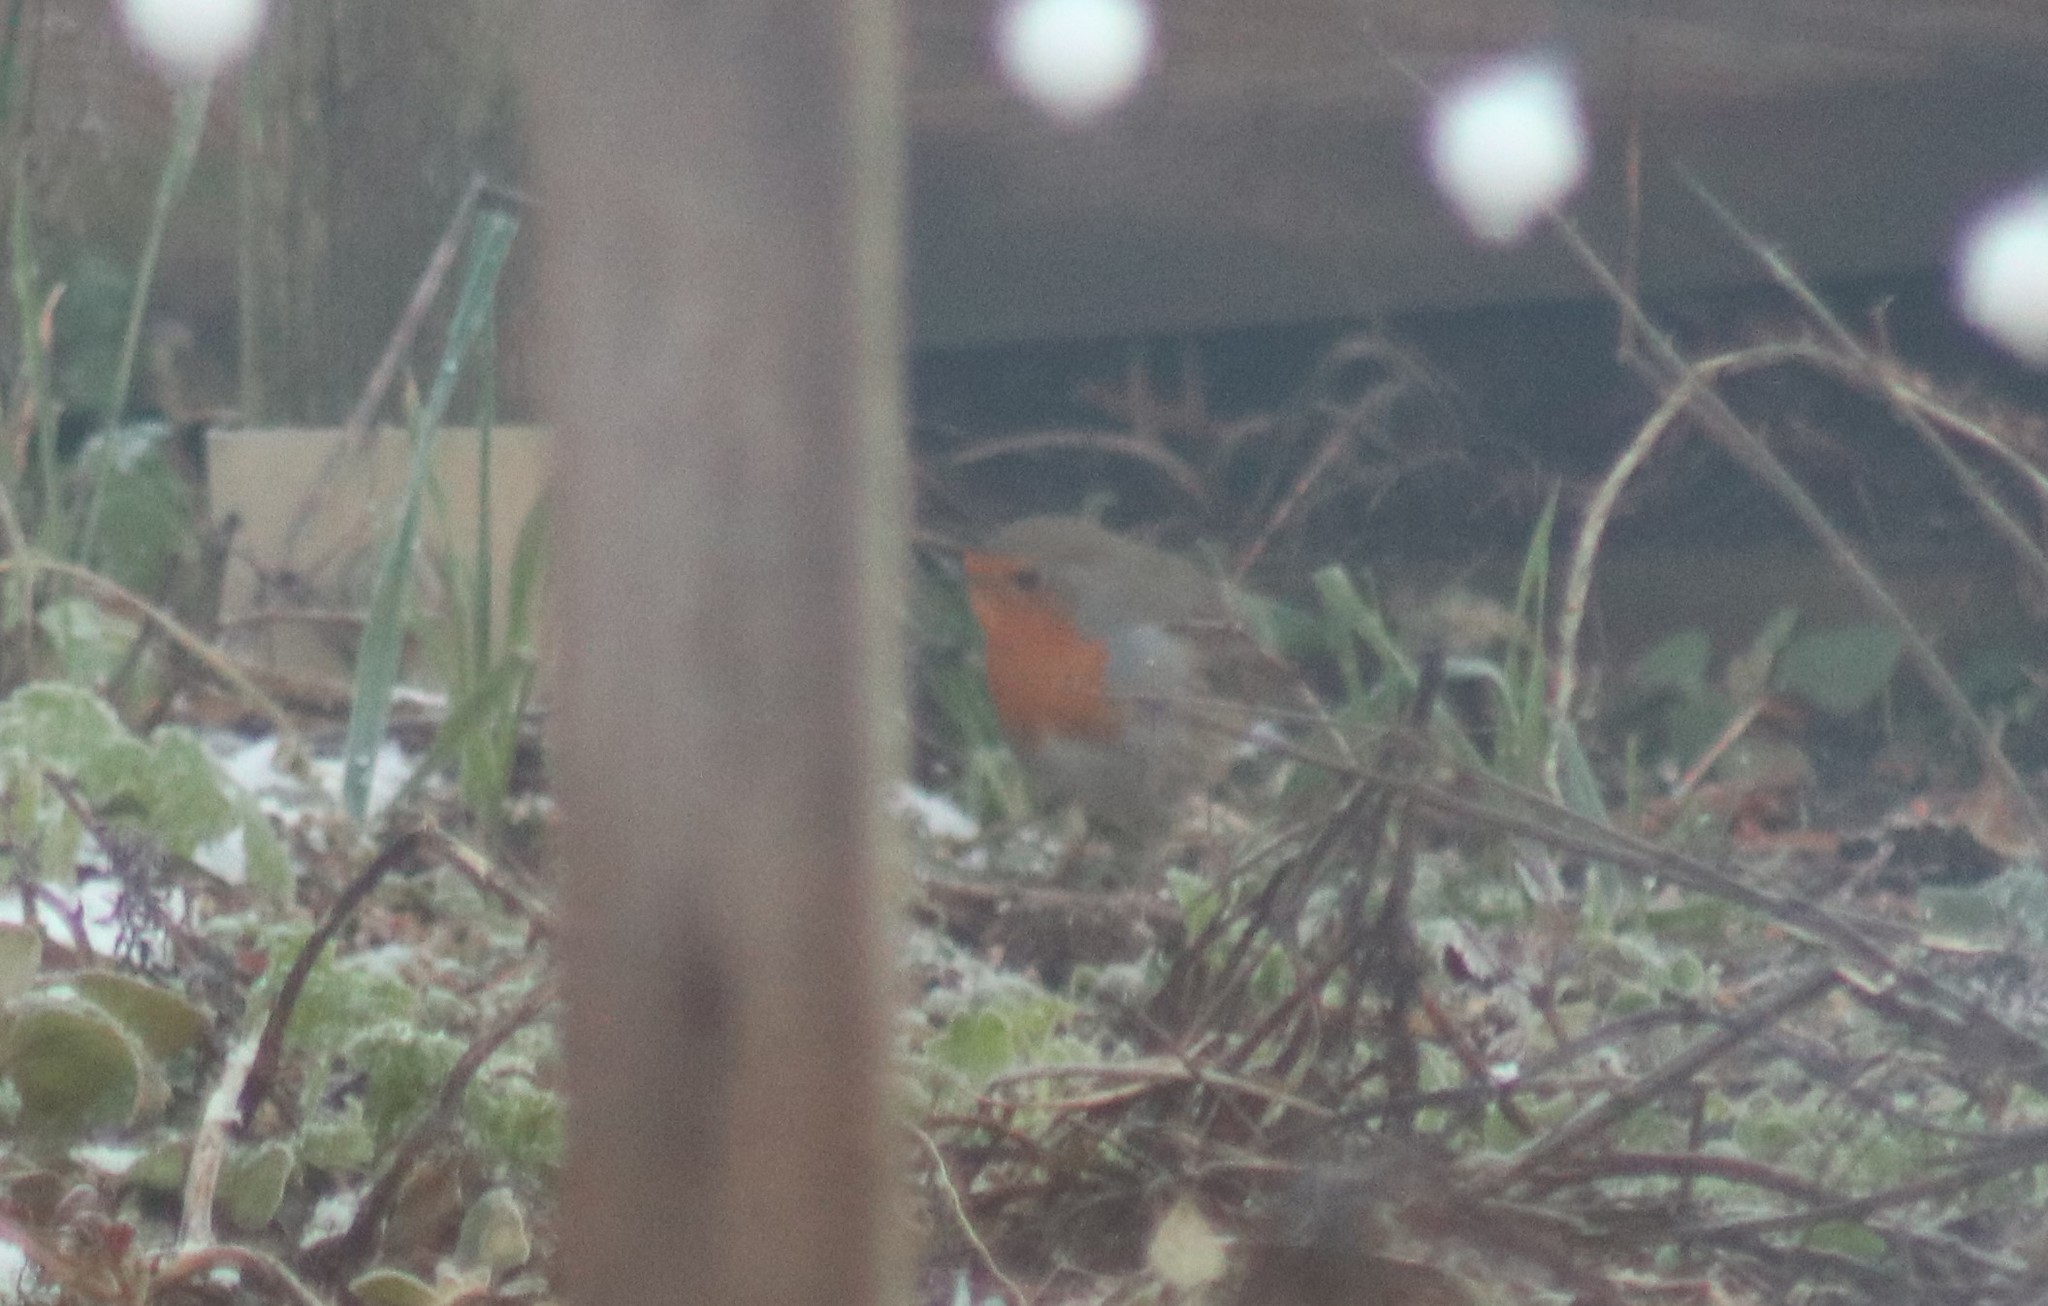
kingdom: Animalia
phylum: Chordata
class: Aves
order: Passeriformes
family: Muscicapidae
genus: Erithacus
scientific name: Erithacus rubecula
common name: European robin
